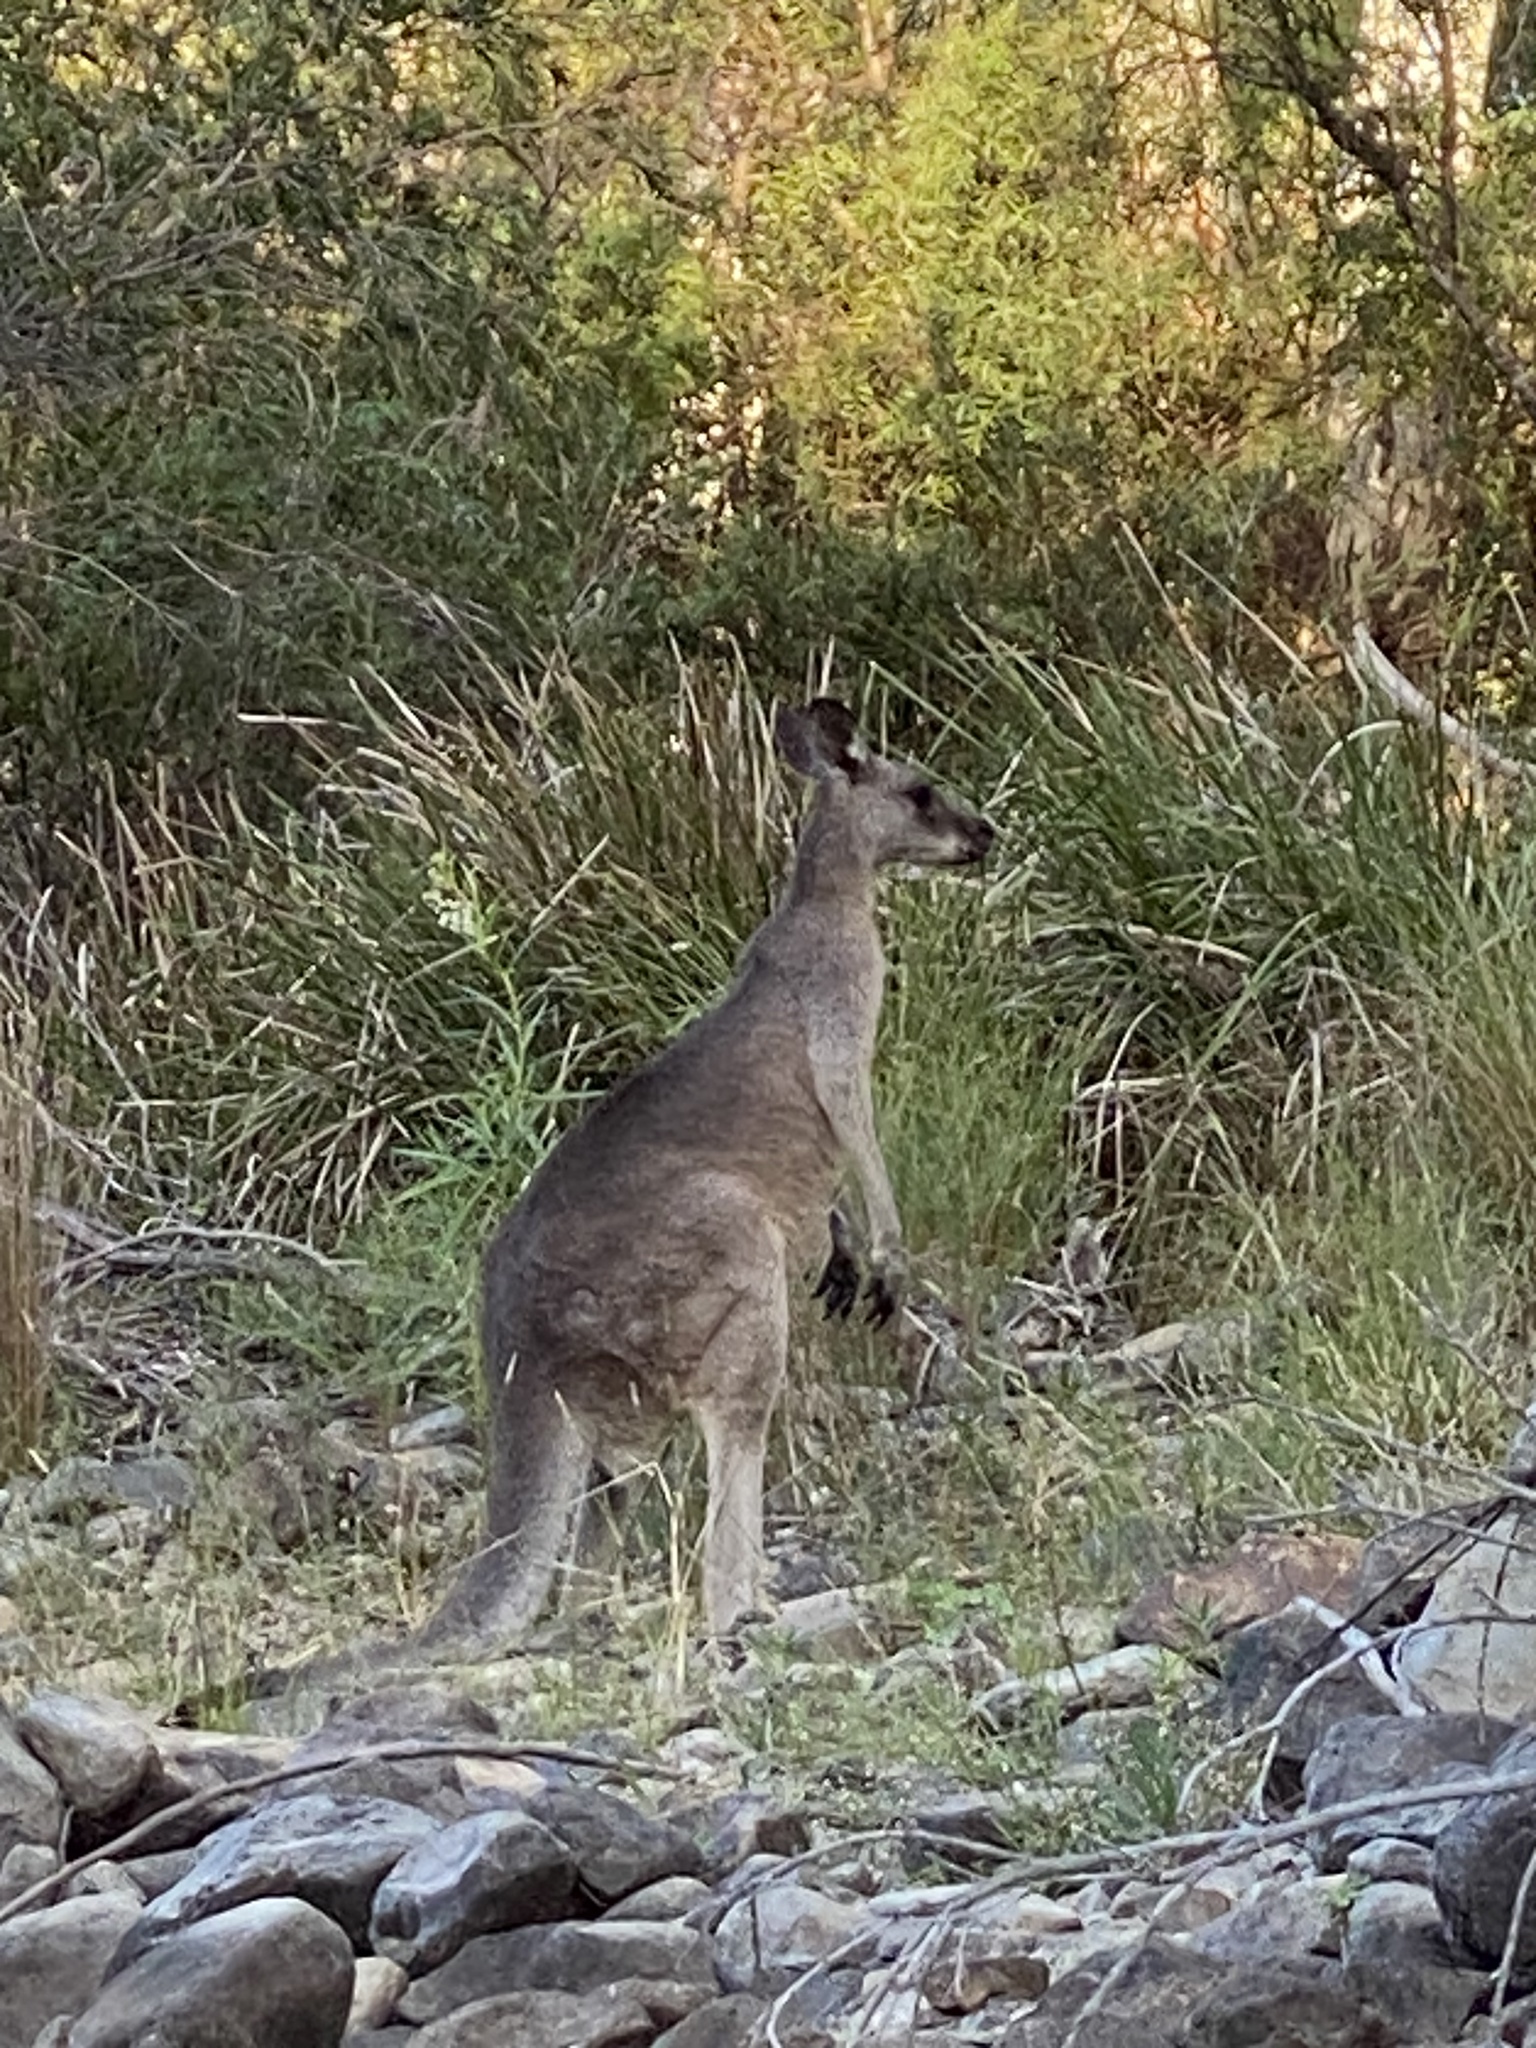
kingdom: Animalia
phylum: Chordata
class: Mammalia
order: Diprotodontia
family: Macropodidae
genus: Macropus
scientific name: Macropus giganteus
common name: Eastern grey kangaroo
